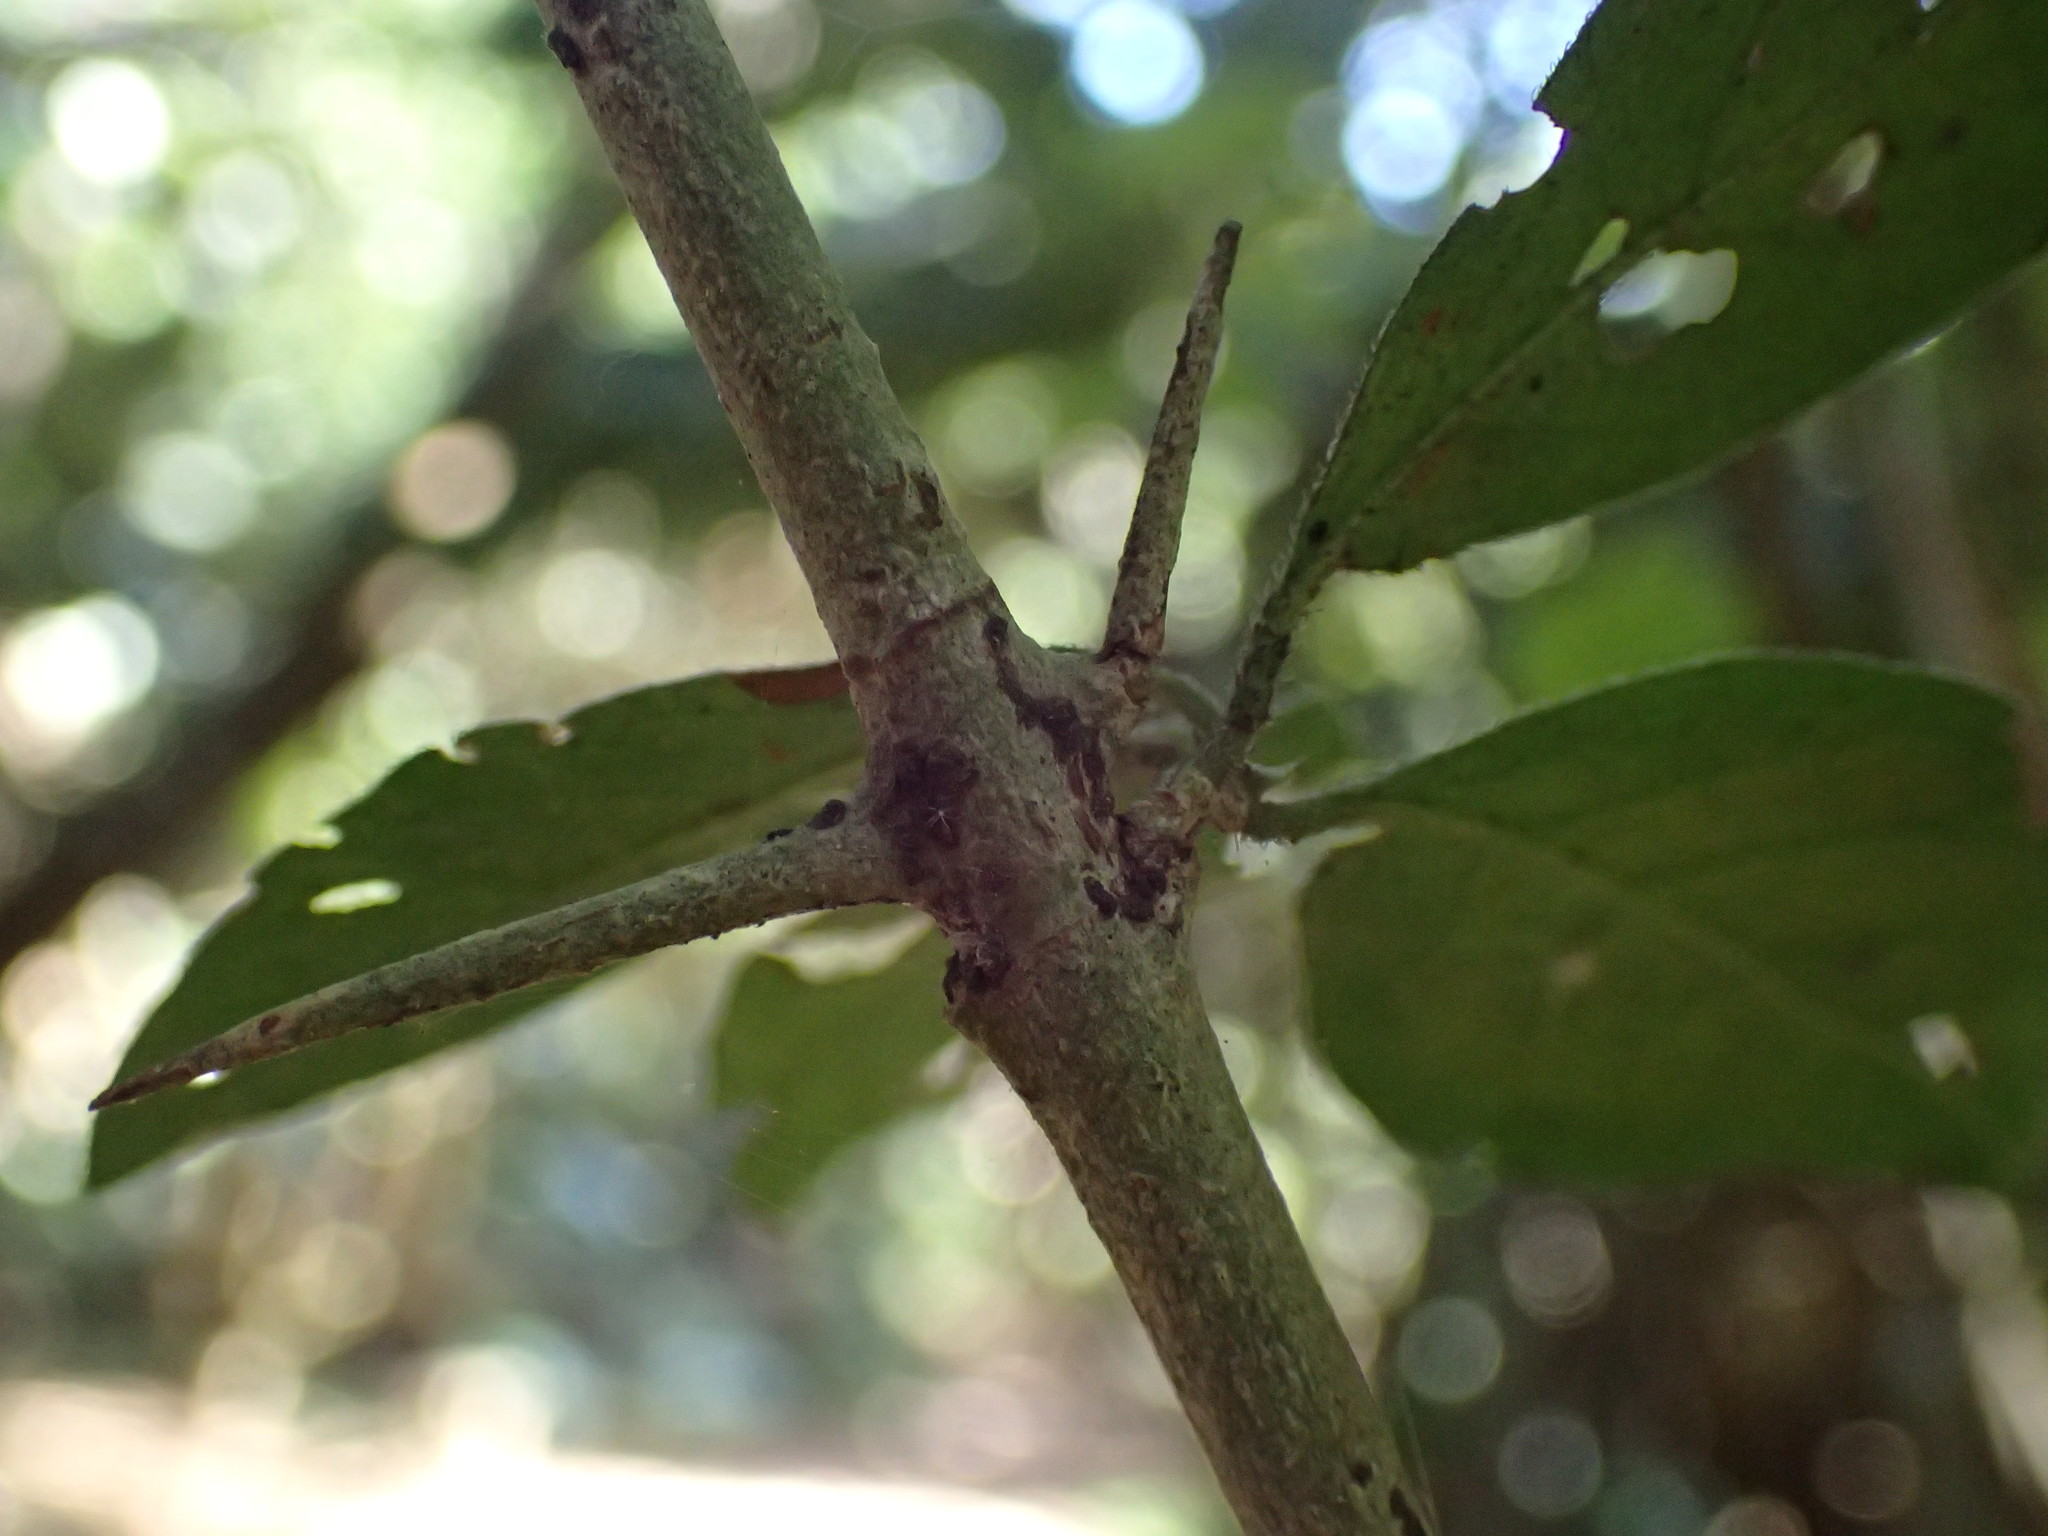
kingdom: Plantae
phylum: Tracheophyta
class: Magnoliopsida
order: Gentianales
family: Rubiaceae
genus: Canthium
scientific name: Canthium ciliatum
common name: Hairy turkey-berry
